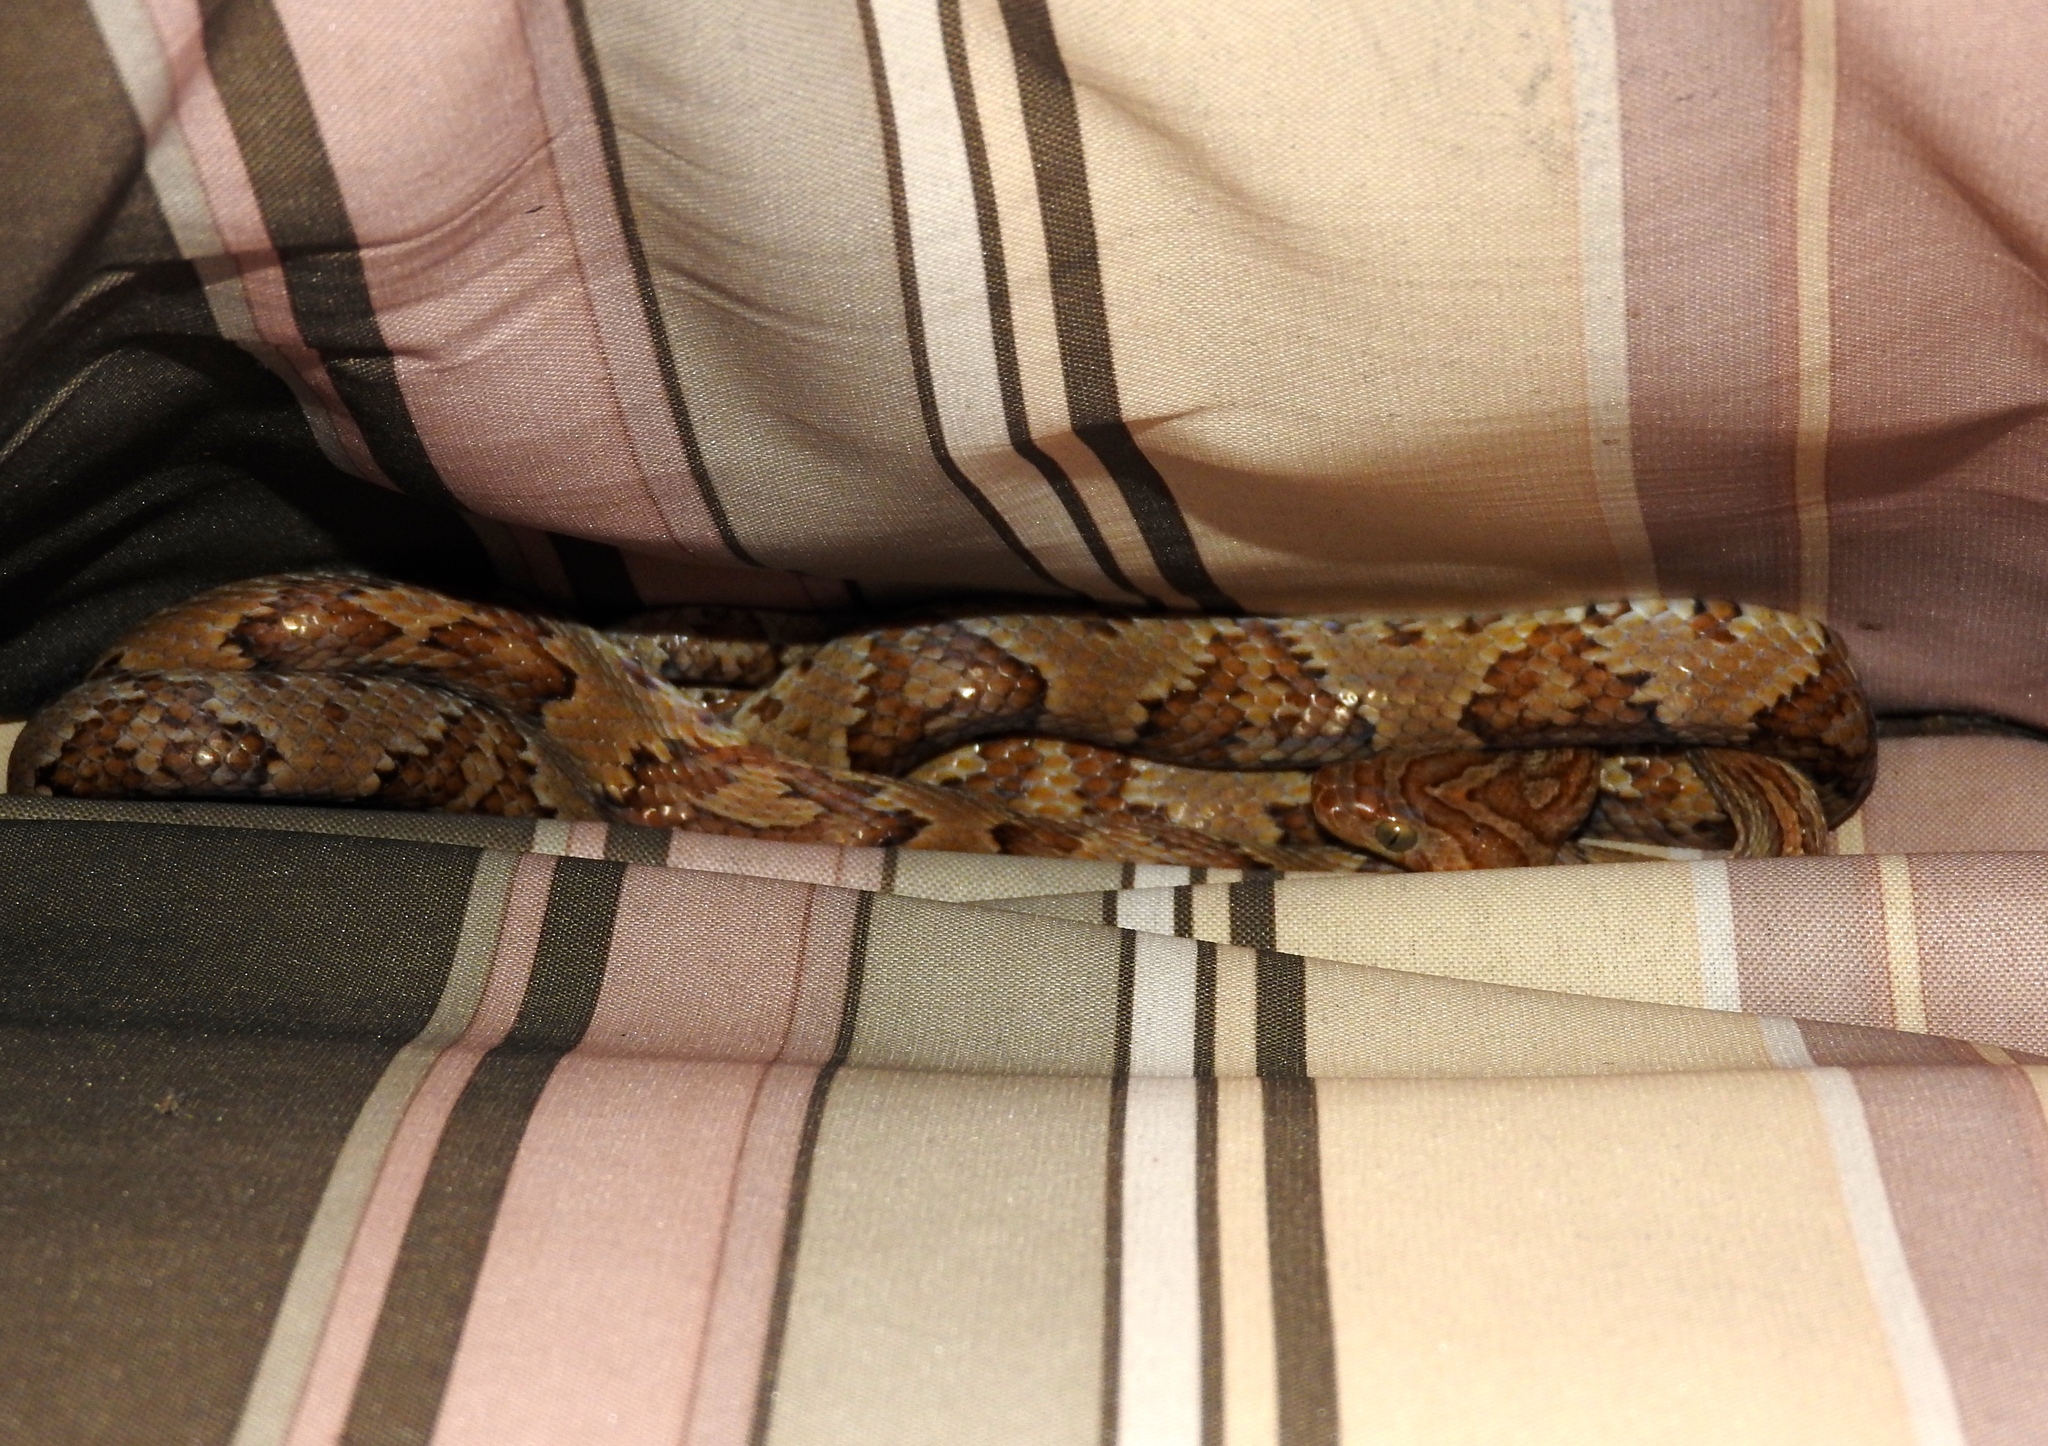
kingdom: Animalia
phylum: Chordata
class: Squamata
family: Colubridae
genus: Trimorphodon
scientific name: Trimorphodon paucimaculatus
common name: Sinaloan lyresnake
